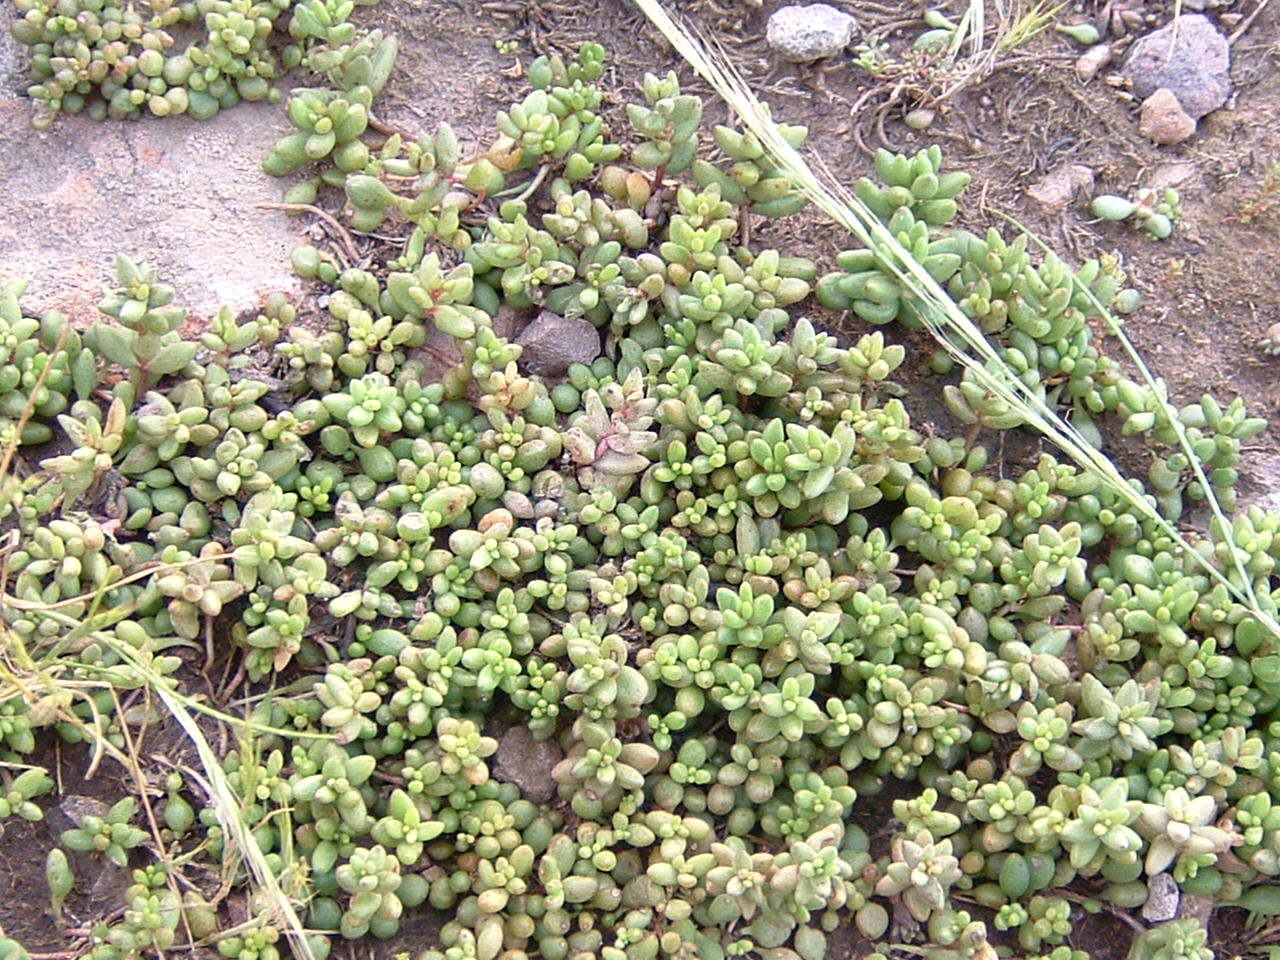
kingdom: Plantae
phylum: Tracheophyta
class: Magnoliopsida
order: Saxifragales
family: Crassulaceae
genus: Dudleya
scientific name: Dudleya blochmaniae
